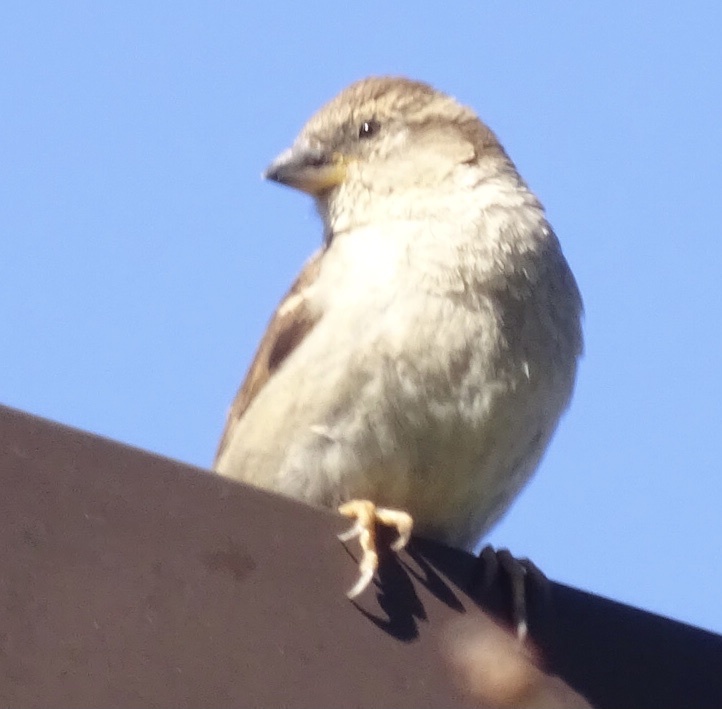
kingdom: Animalia
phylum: Chordata
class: Aves
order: Passeriformes
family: Passeridae
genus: Passer
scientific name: Passer domesticus
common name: House sparrow
